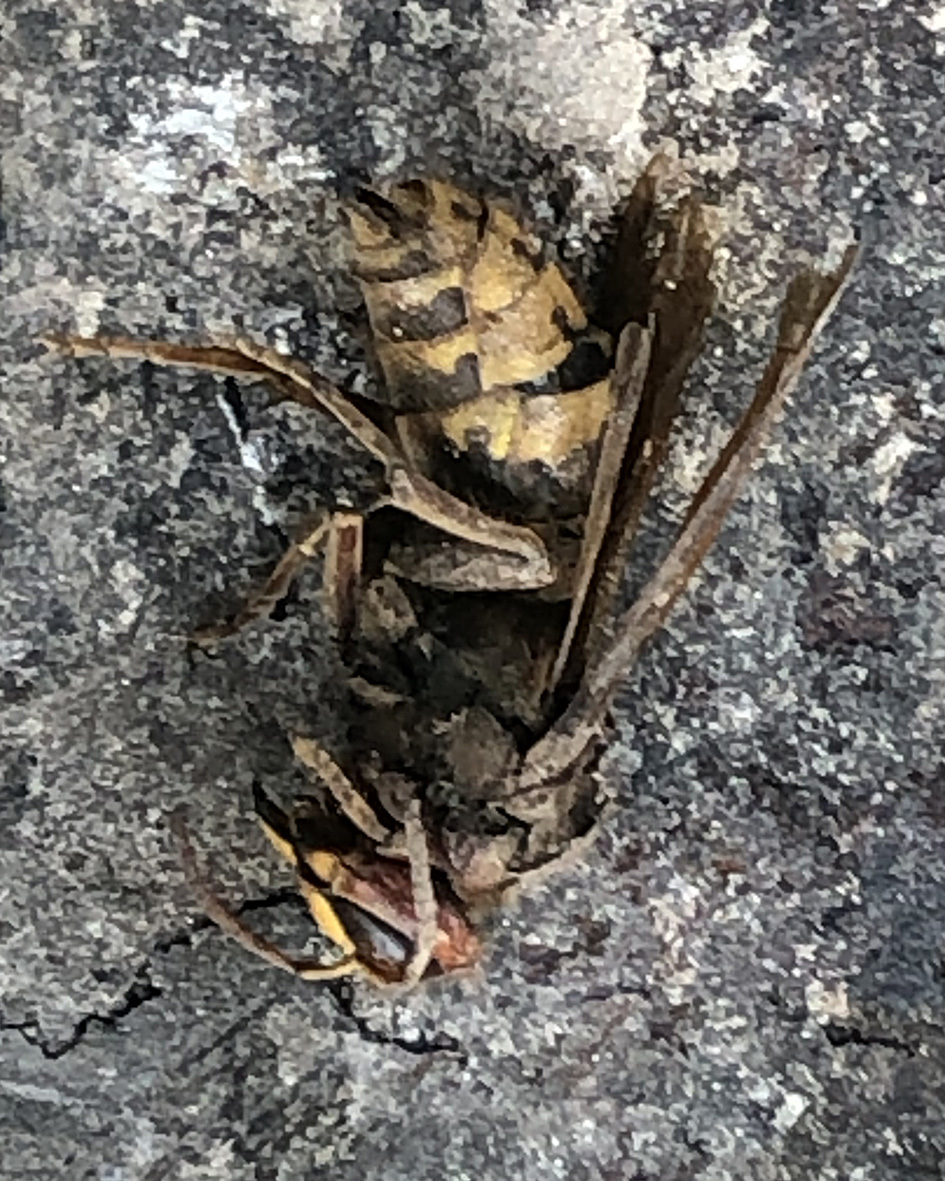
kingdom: Animalia
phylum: Arthropoda
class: Insecta
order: Hymenoptera
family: Vespidae
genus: Vespa
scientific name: Vespa crabro
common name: Hornet
